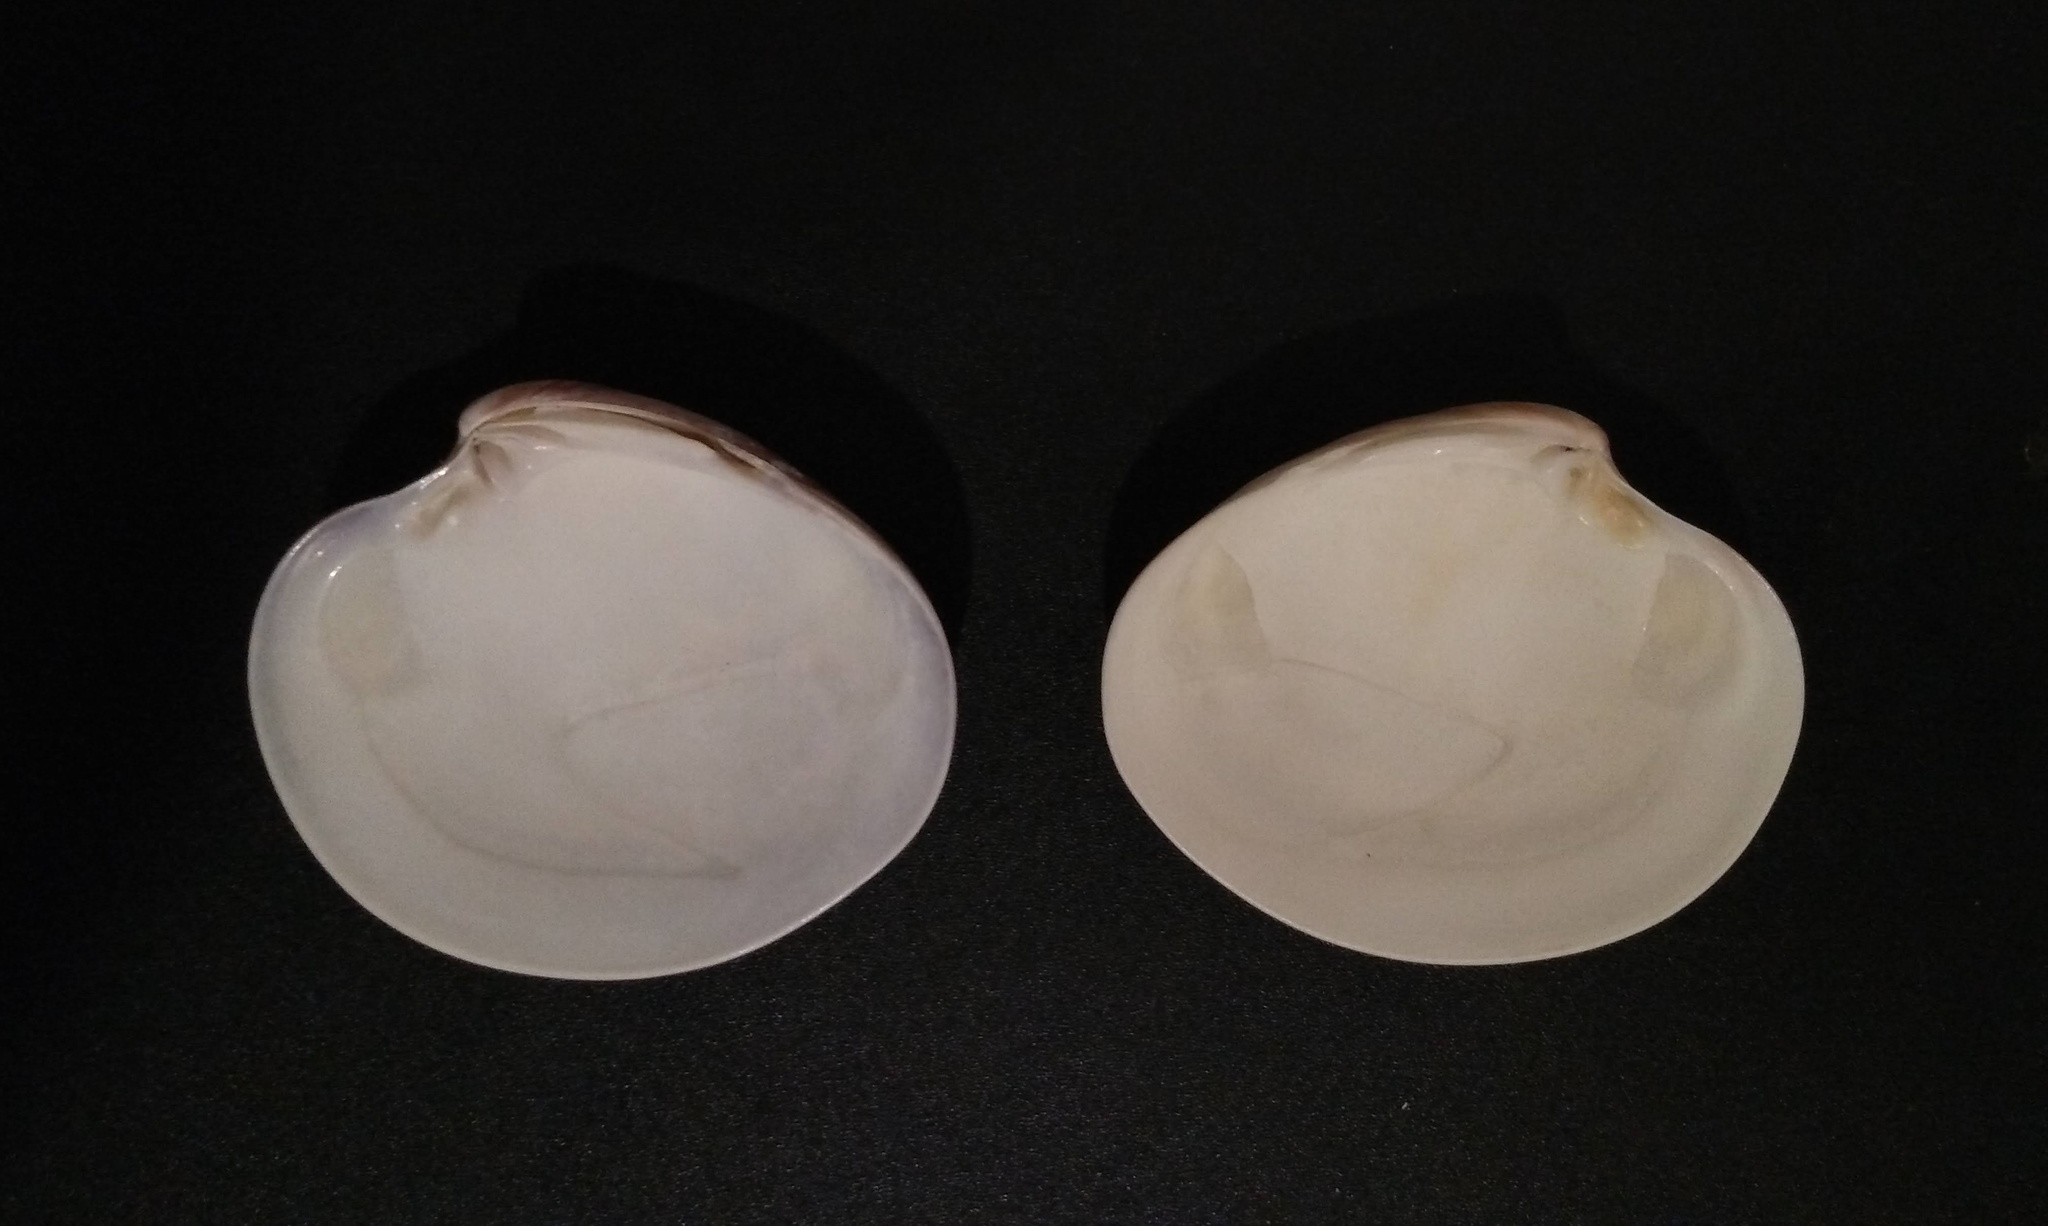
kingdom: Animalia
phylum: Mollusca
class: Bivalvia
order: Venerida
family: Veneridae
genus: Eucallista
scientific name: Eucallista purpurata
